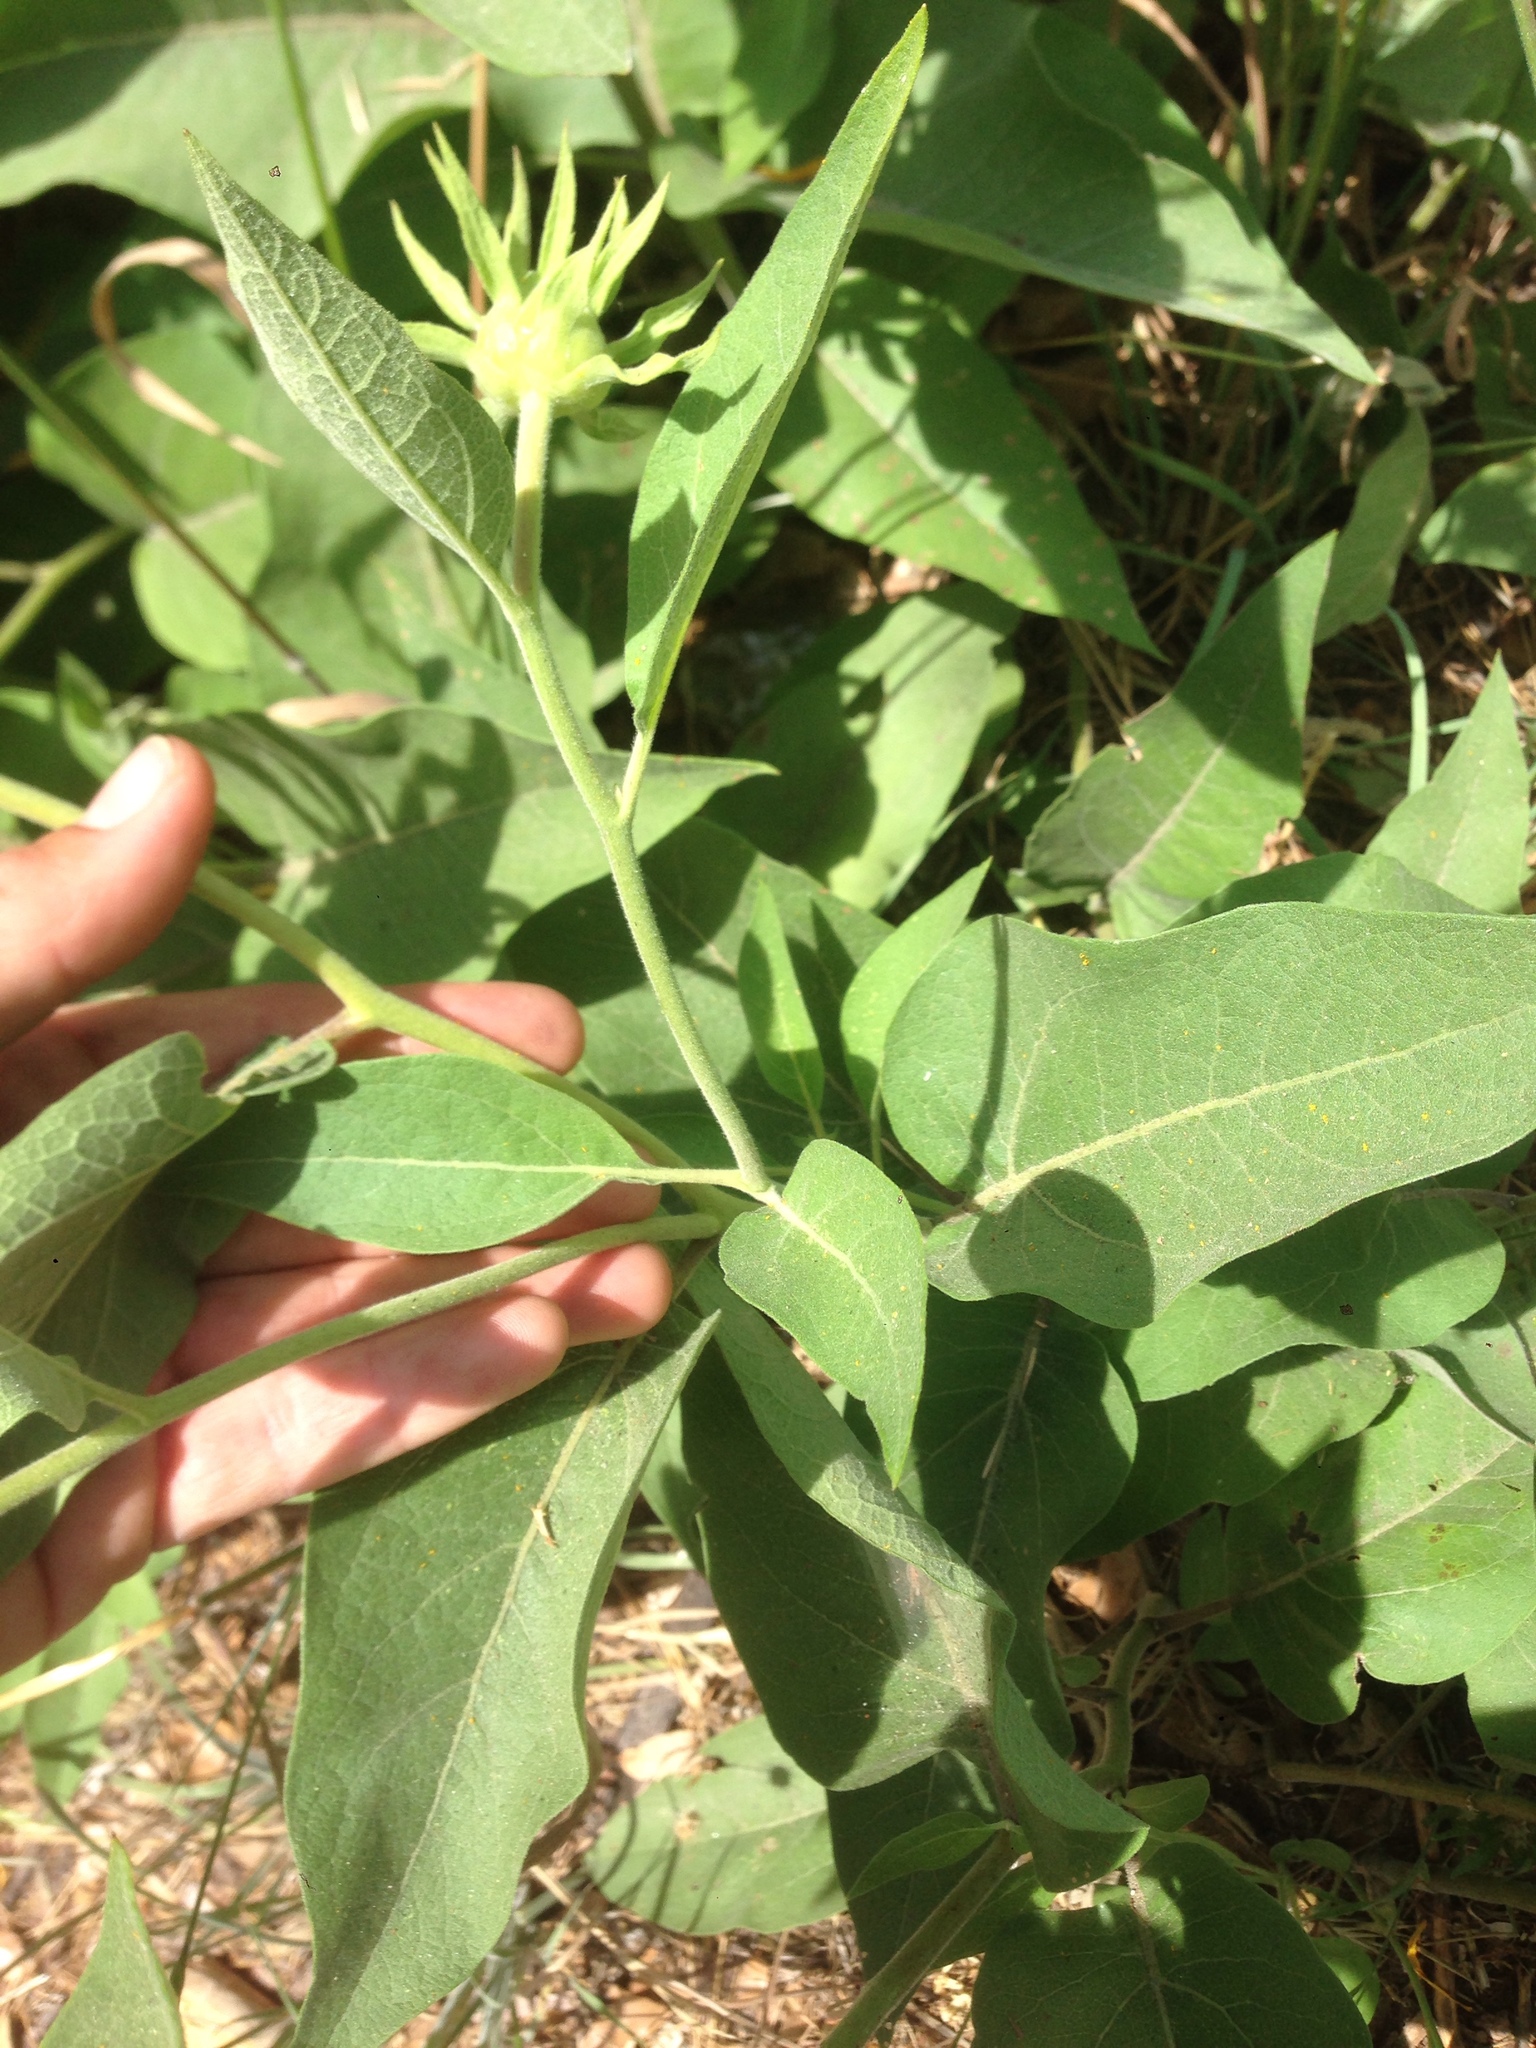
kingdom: Plantae
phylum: Tracheophyta
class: Magnoliopsida
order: Asterales
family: Asteraceae
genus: Agnorhiza
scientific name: Agnorhiza elata
